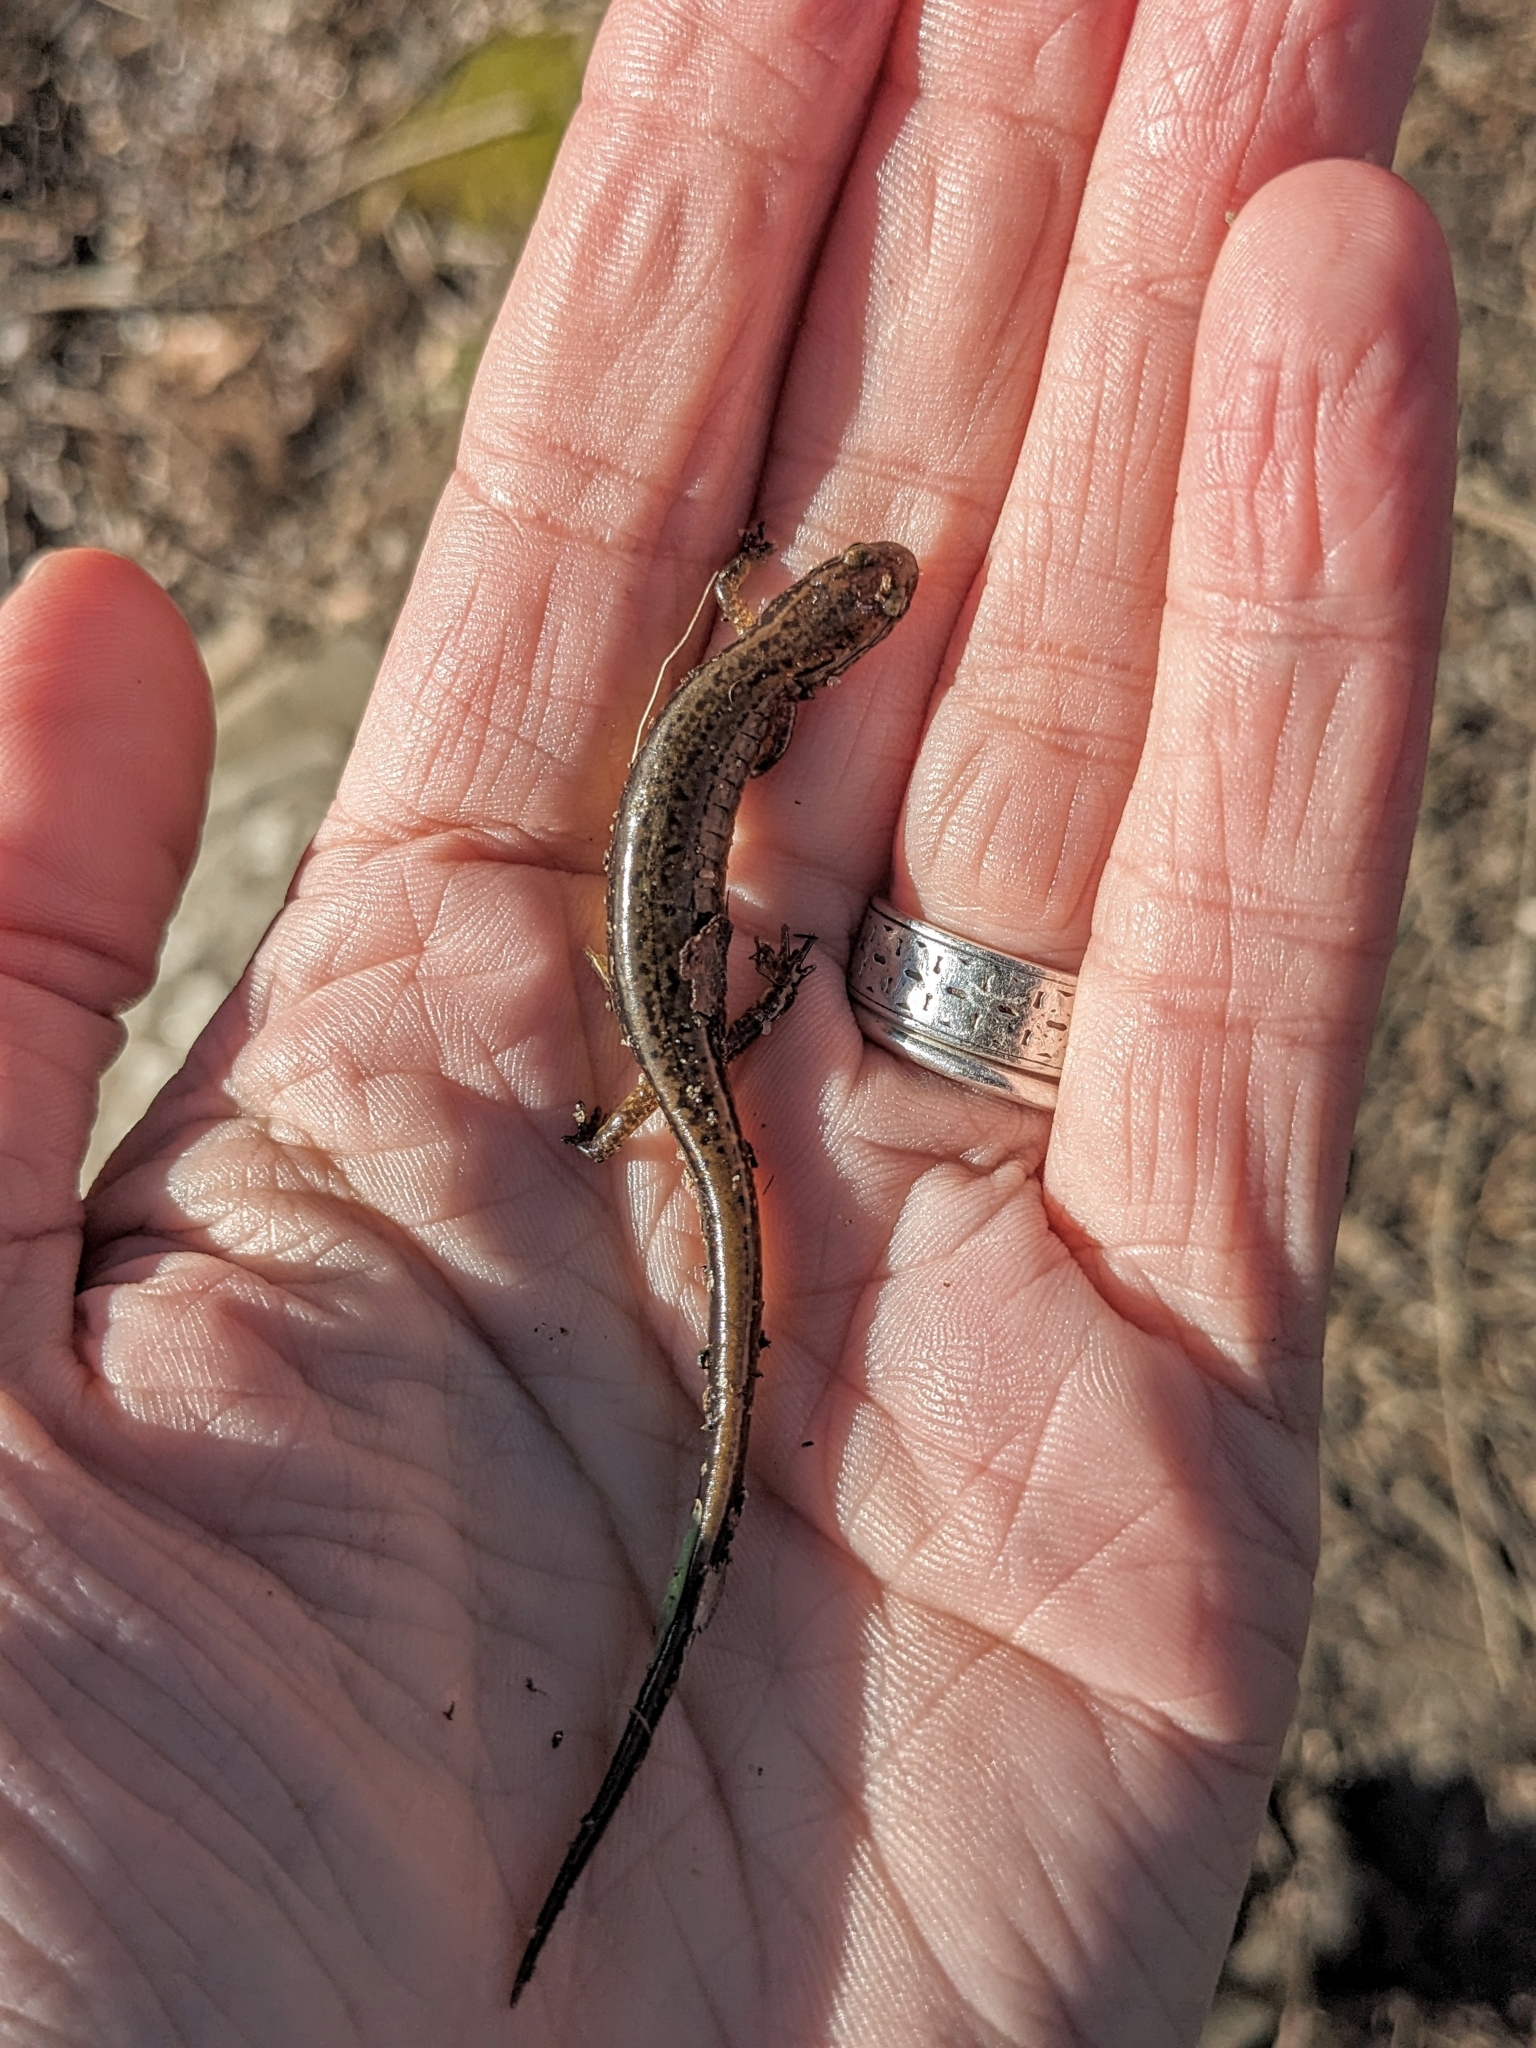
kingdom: Animalia
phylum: Chordata
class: Amphibia
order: Caudata
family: Plethodontidae
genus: Eurycea
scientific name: Eurycea bislineata
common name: Northern two-lined salamander
